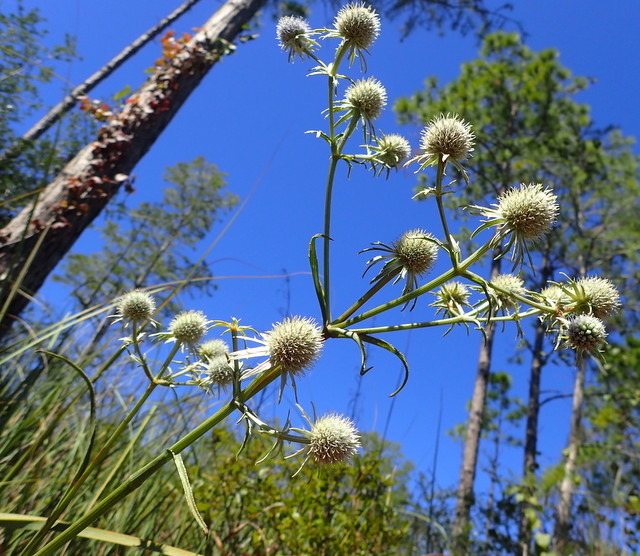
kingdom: Plantae
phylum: Tracheophyta
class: Magnoliopsida
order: Apiales
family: Apiaceae
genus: Eryngium
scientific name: Eryngium yuccifolium
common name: Button eryngo
